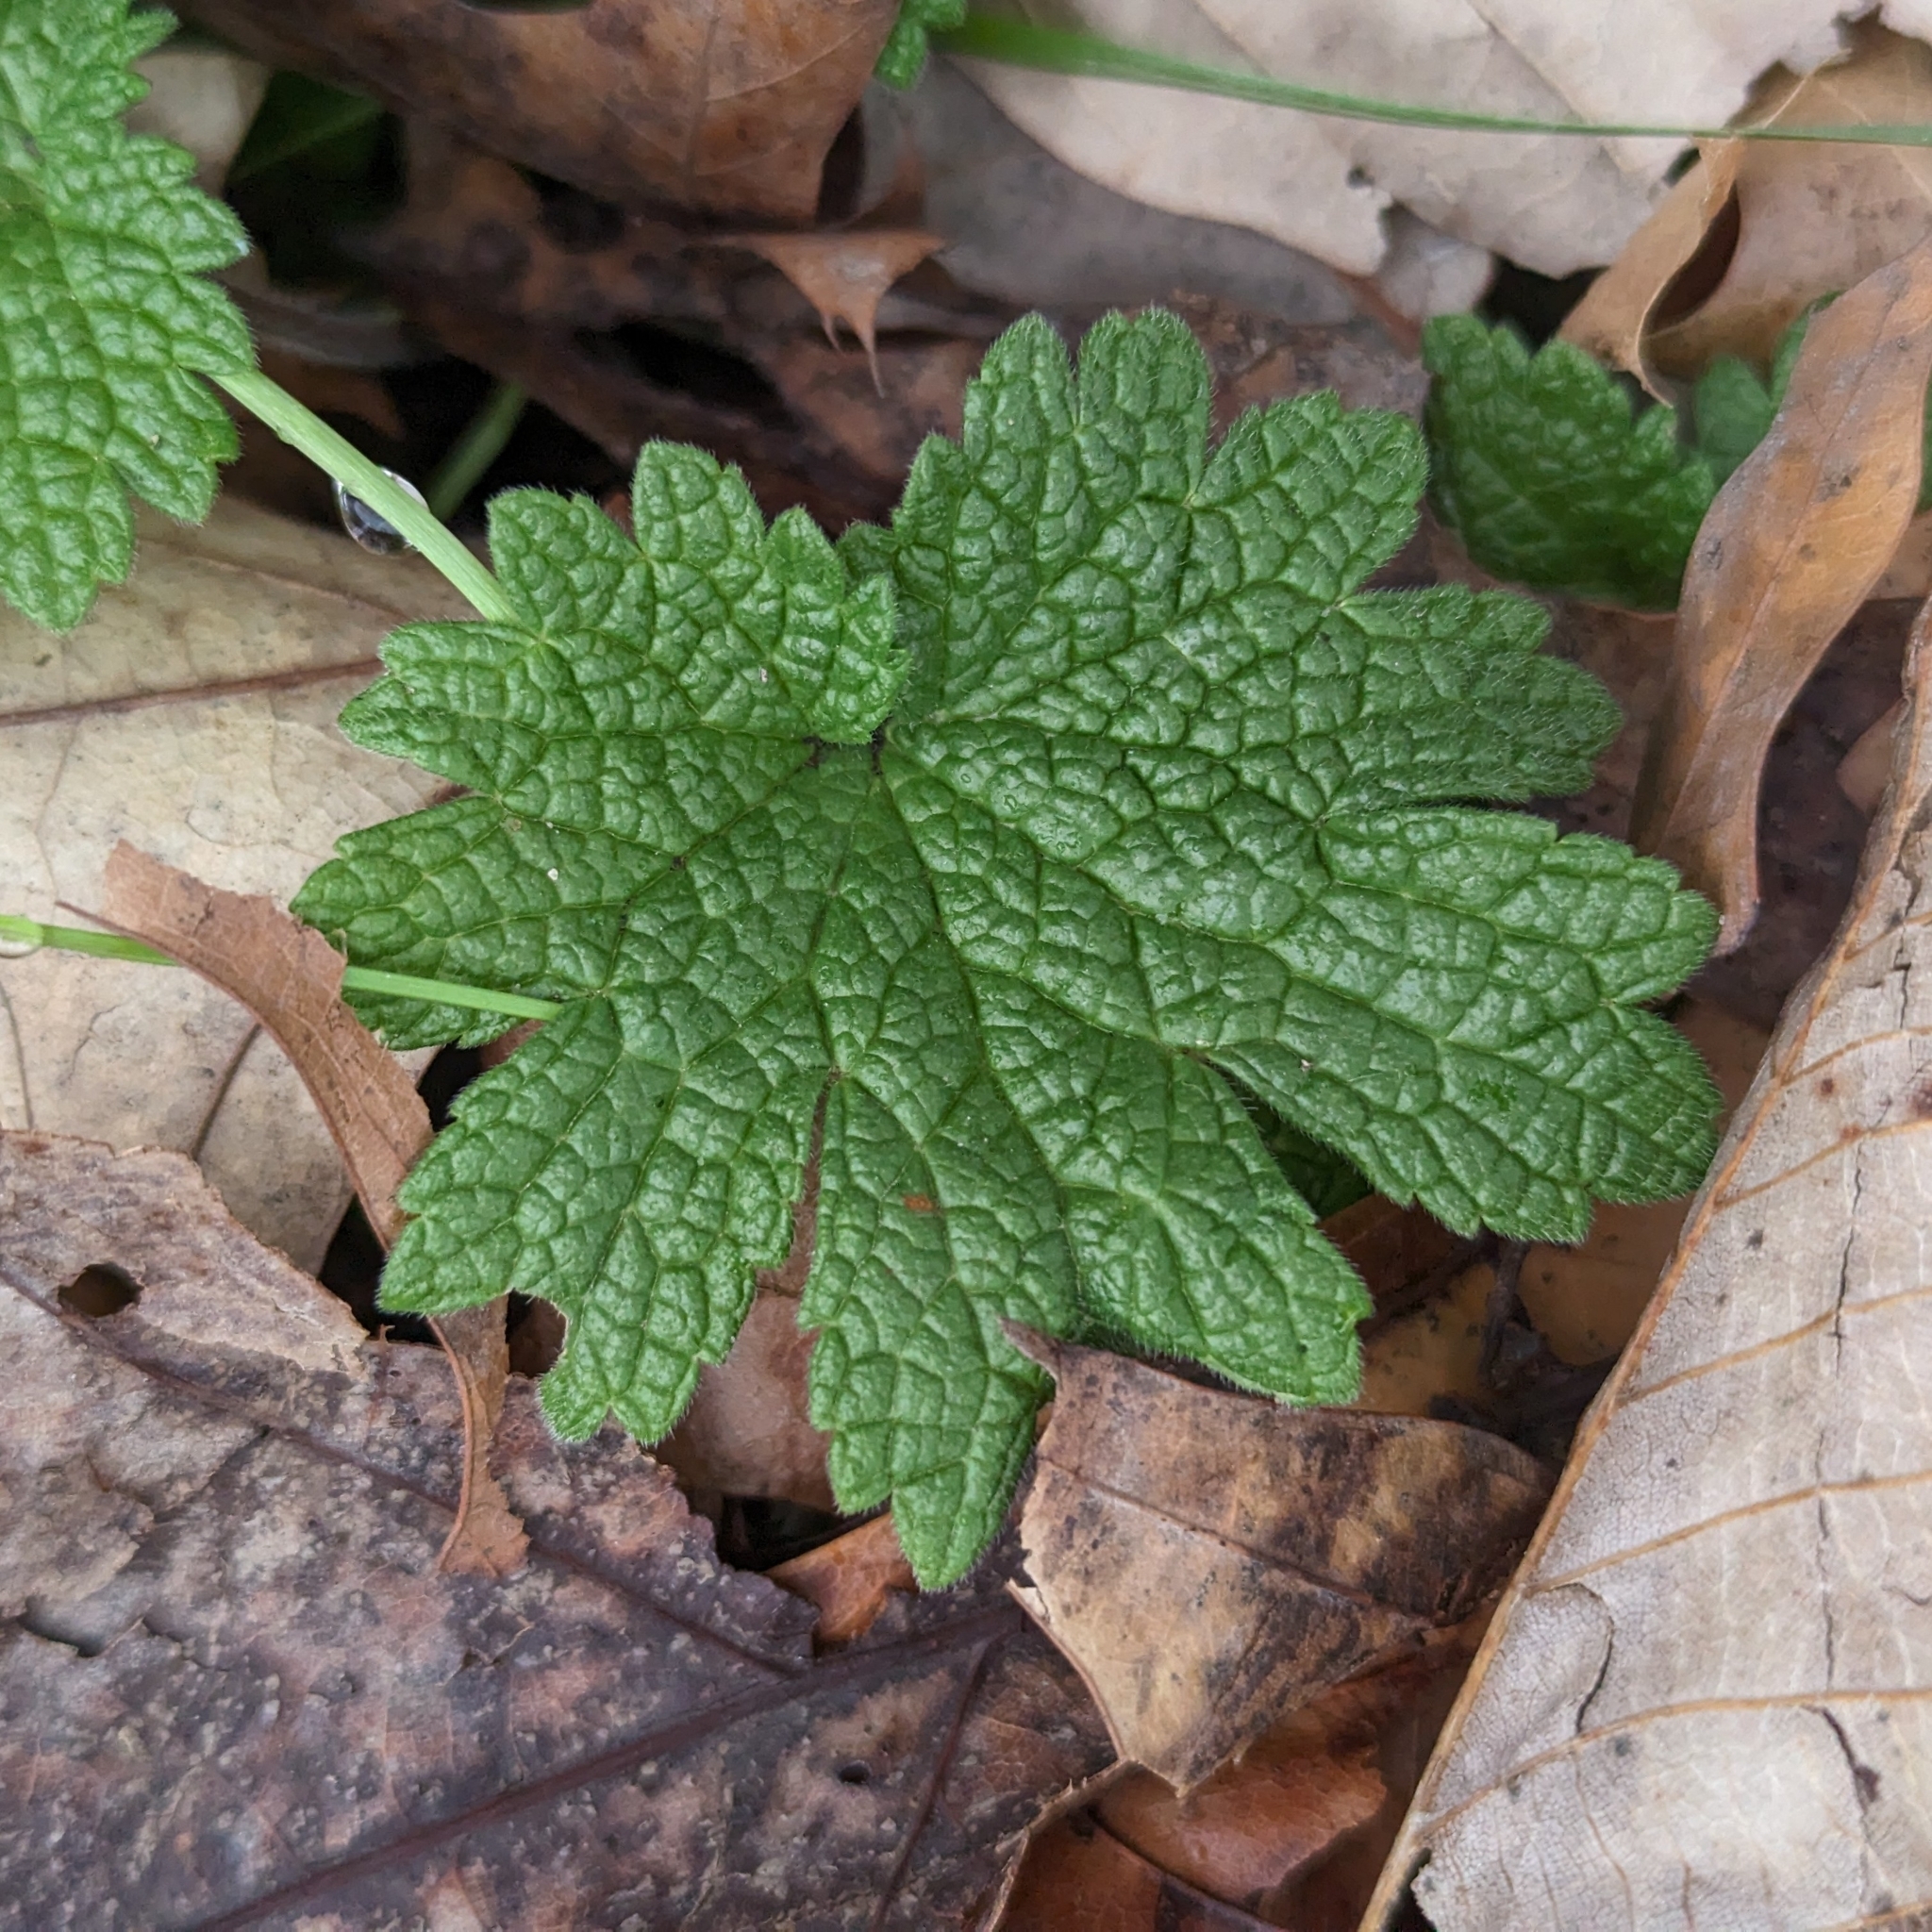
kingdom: Plantae
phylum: Tracheophyta
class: Magnoliopsida
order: Lamiales
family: Lamiaceae
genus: Leonurus
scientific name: Leonurus cardiaca
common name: Motherwort
